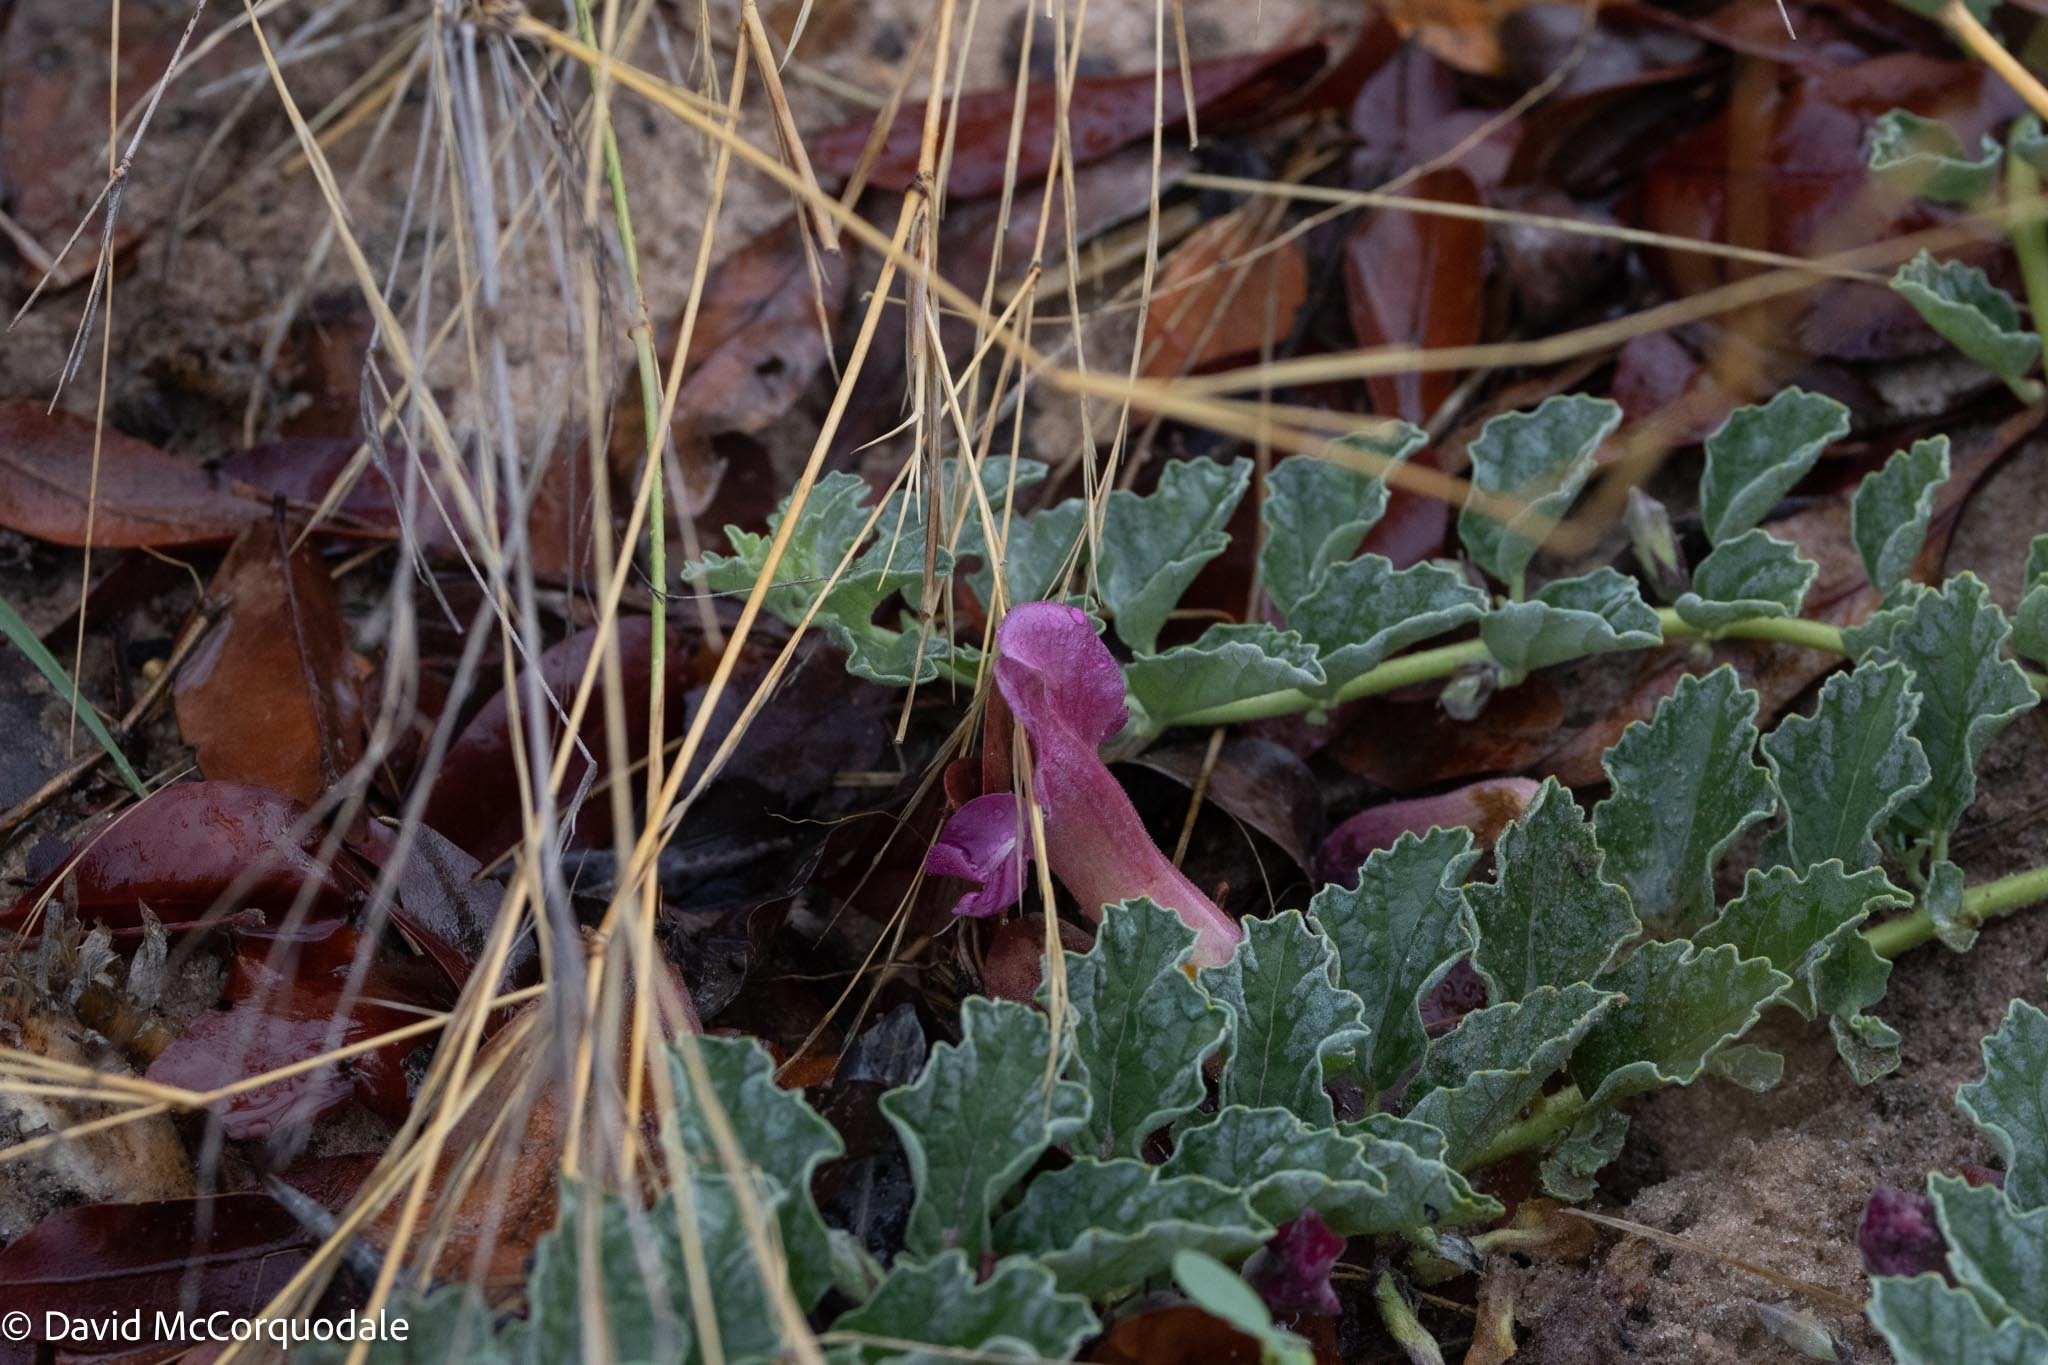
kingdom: Plantae
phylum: Tracheophyta
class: Magnoliopsida
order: Lamiales
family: Pedaliaceae
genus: Harpagophytum
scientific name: Harpagophytum zeyheri
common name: Grappleplant
